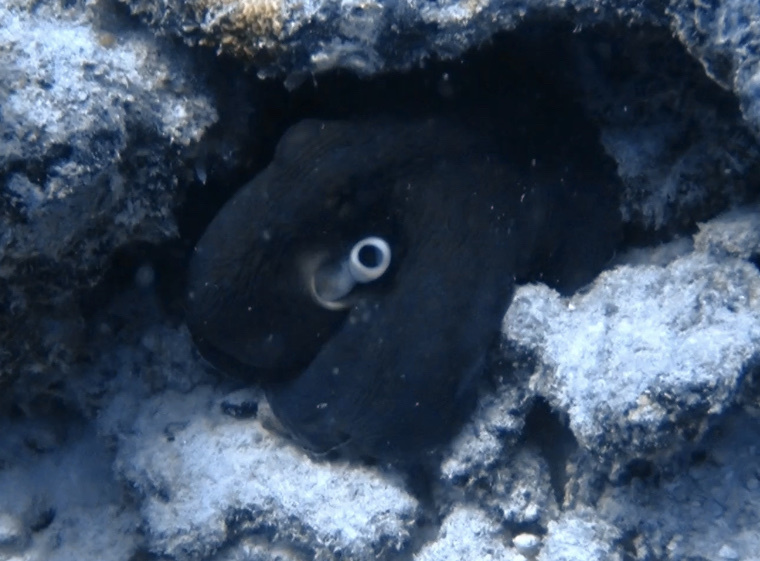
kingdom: Animalia
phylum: Mollusca
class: Cephalopoda
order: Octopoda
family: Octopodidae
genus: Octopus
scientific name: Octopus cyanea
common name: Cyane's octopus
